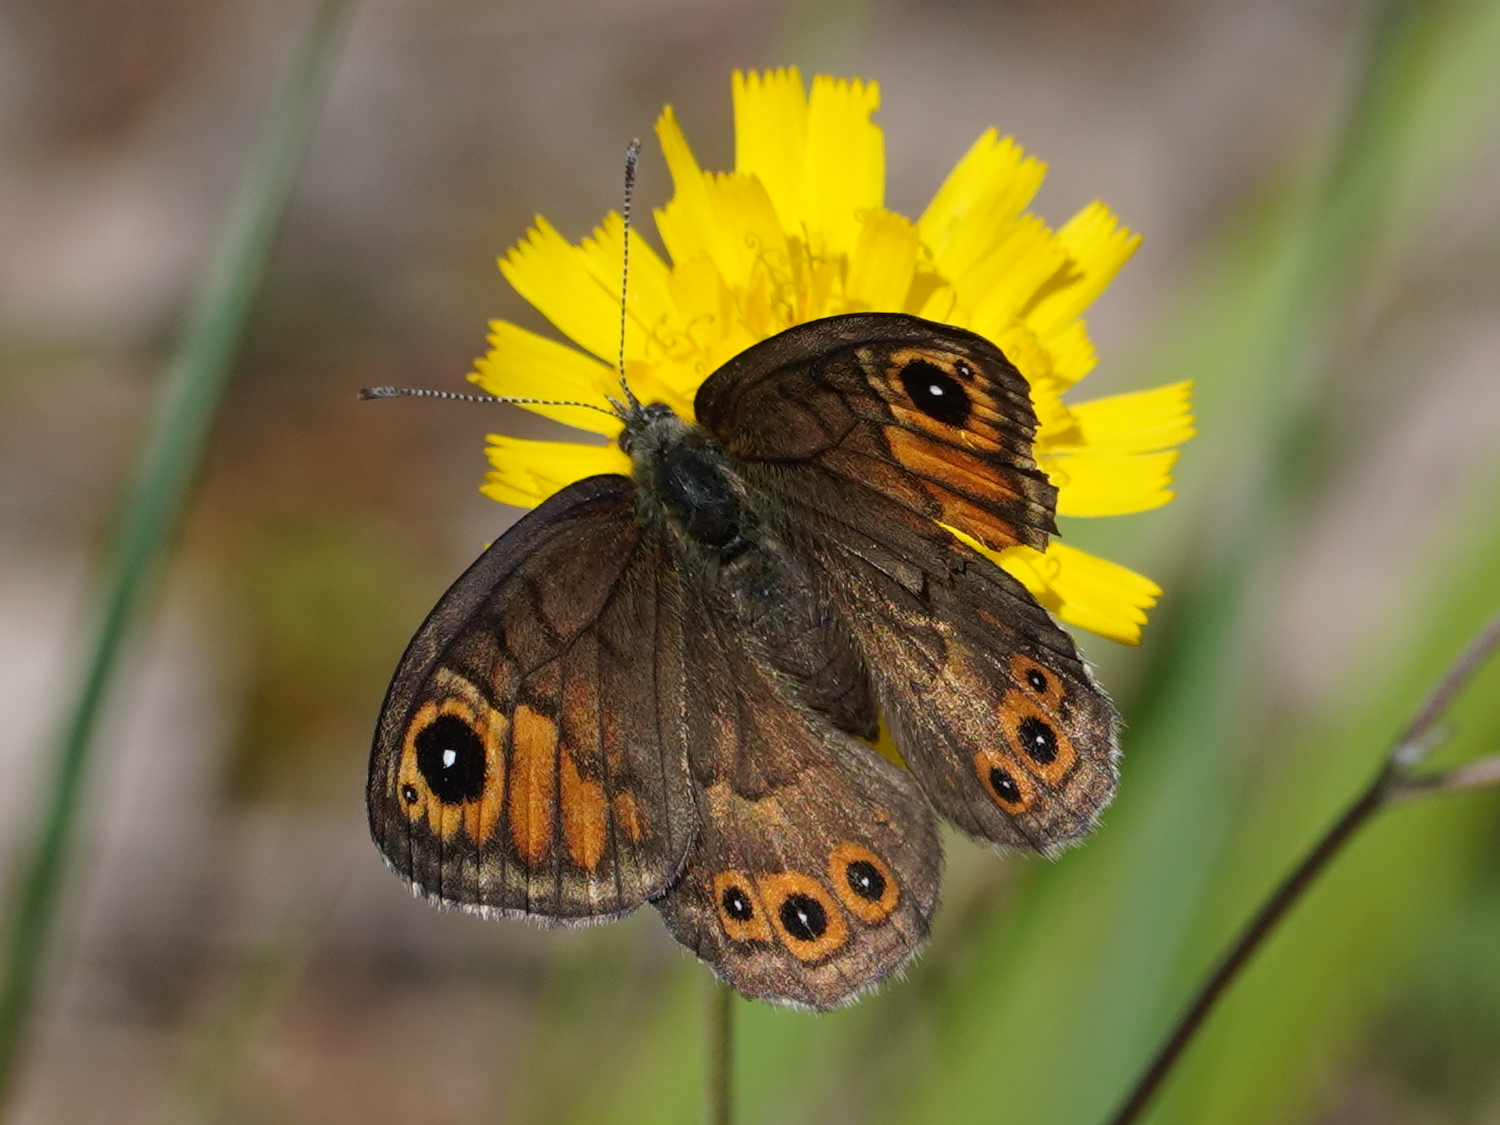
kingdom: Animalia
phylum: Arthropoda
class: Insecta
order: Lepidoptera
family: Nymphalidae
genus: Pararge
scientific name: Pararge petropolitana
